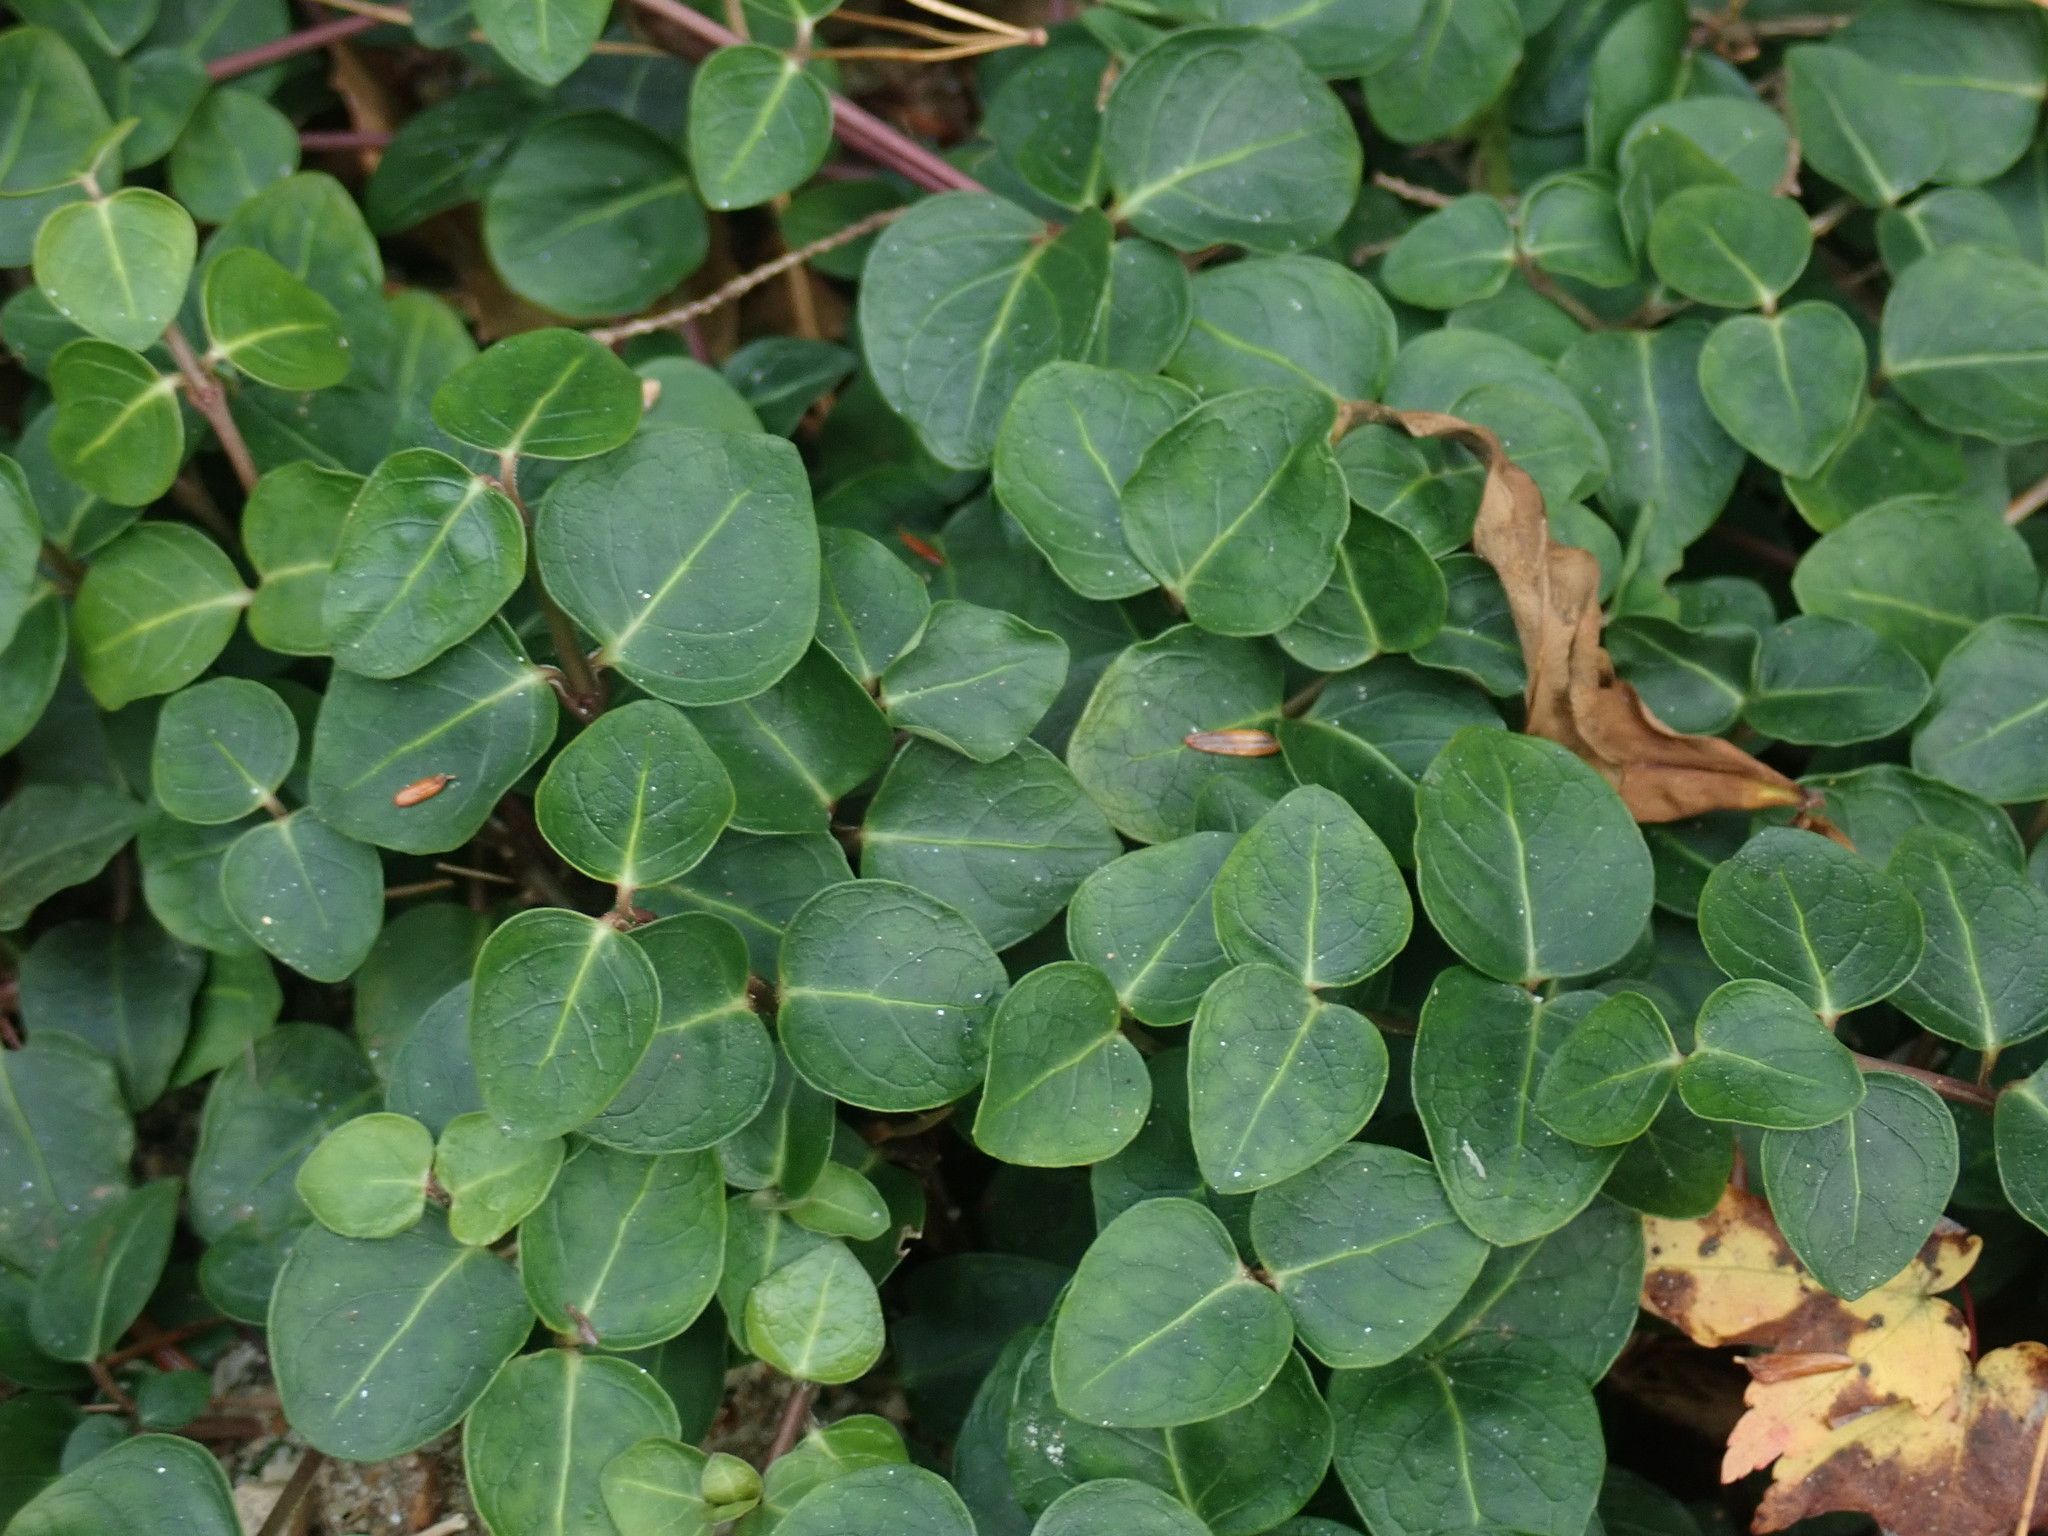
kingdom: Plantae
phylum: Tracheophyta
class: Magnoliopsida
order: Gentianales
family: Rubiaceae
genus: Mitchella
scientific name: Mitchella repens
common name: Partridge-berry
